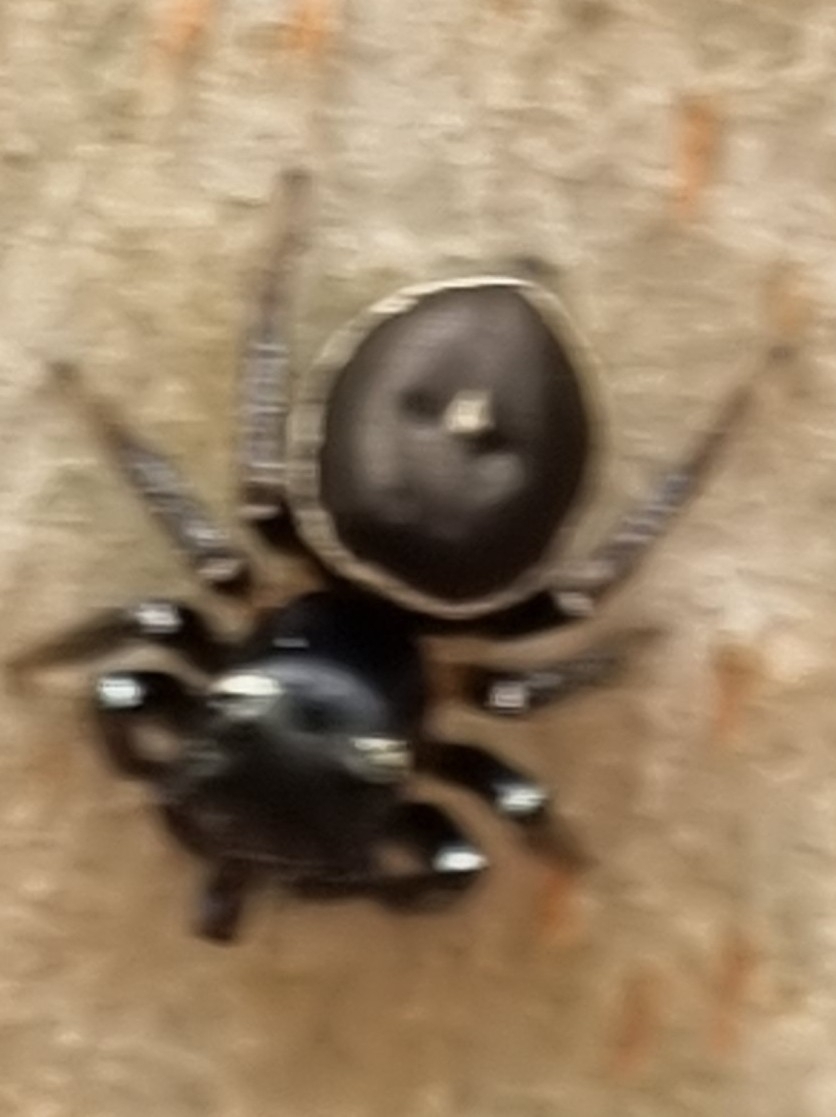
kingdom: Animalia
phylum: Arthropoda
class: Arachnida
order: Araneae
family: Salticidae
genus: Zenodorus
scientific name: Zenodorus orbiculatus
